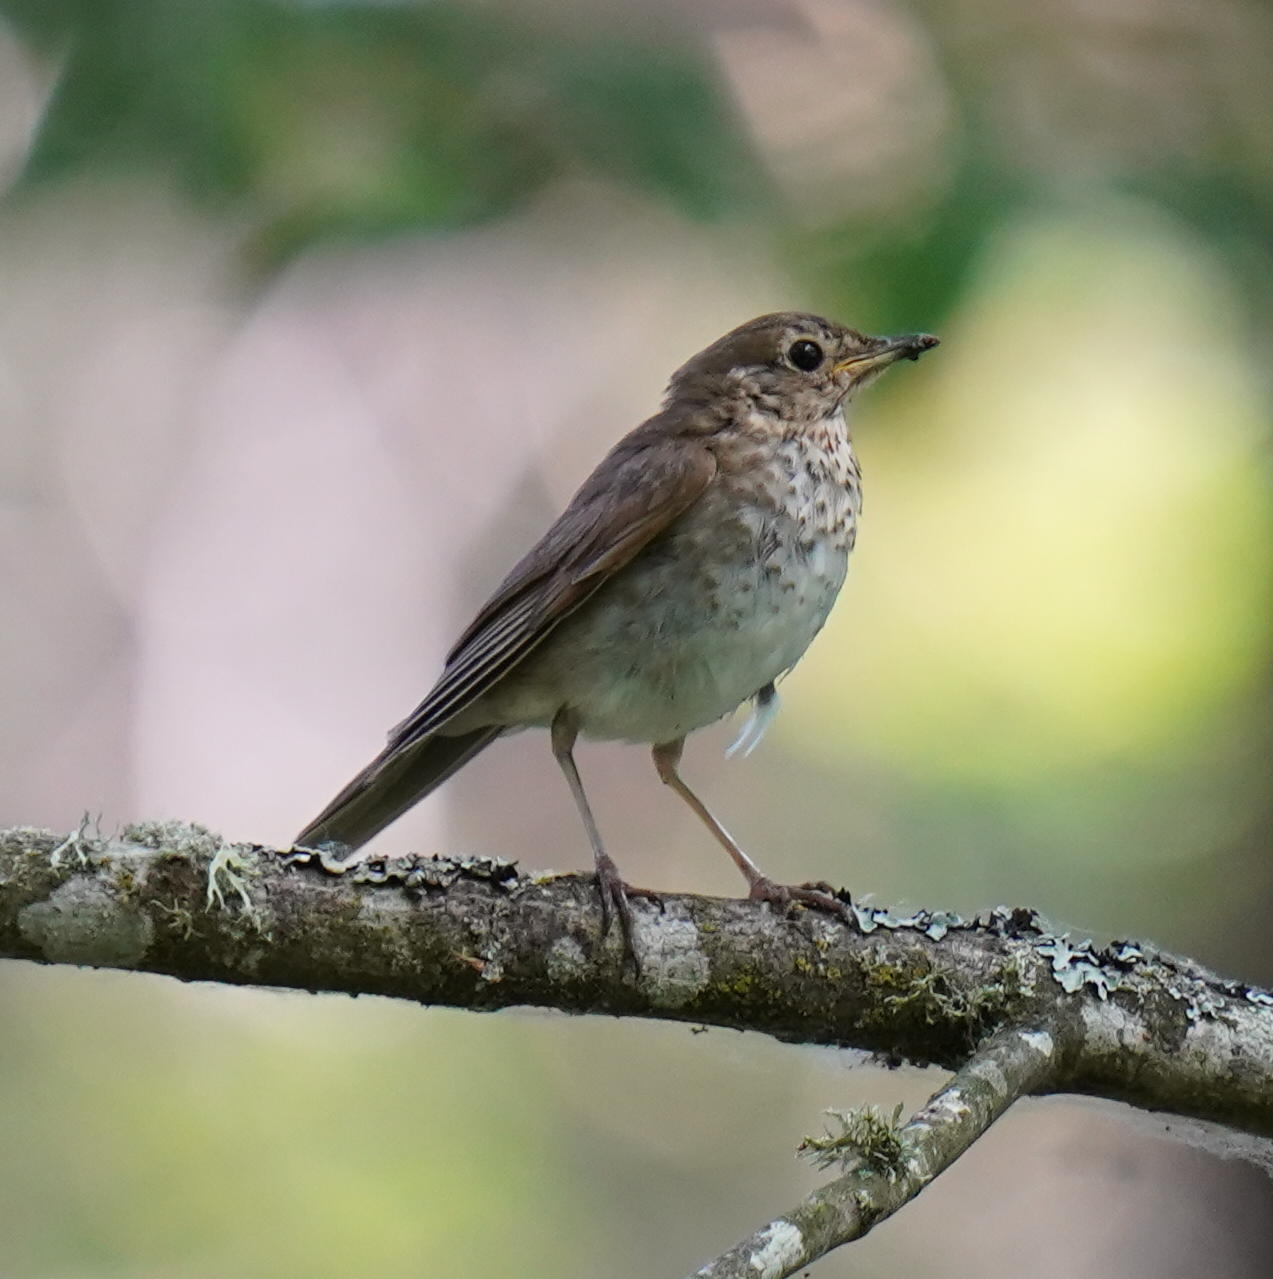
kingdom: Animalia
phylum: Chordata
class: Aves
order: Passeriformes
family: Turdidae
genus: Catharus
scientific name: Catharus ustulatus
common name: Swainson's thrush
